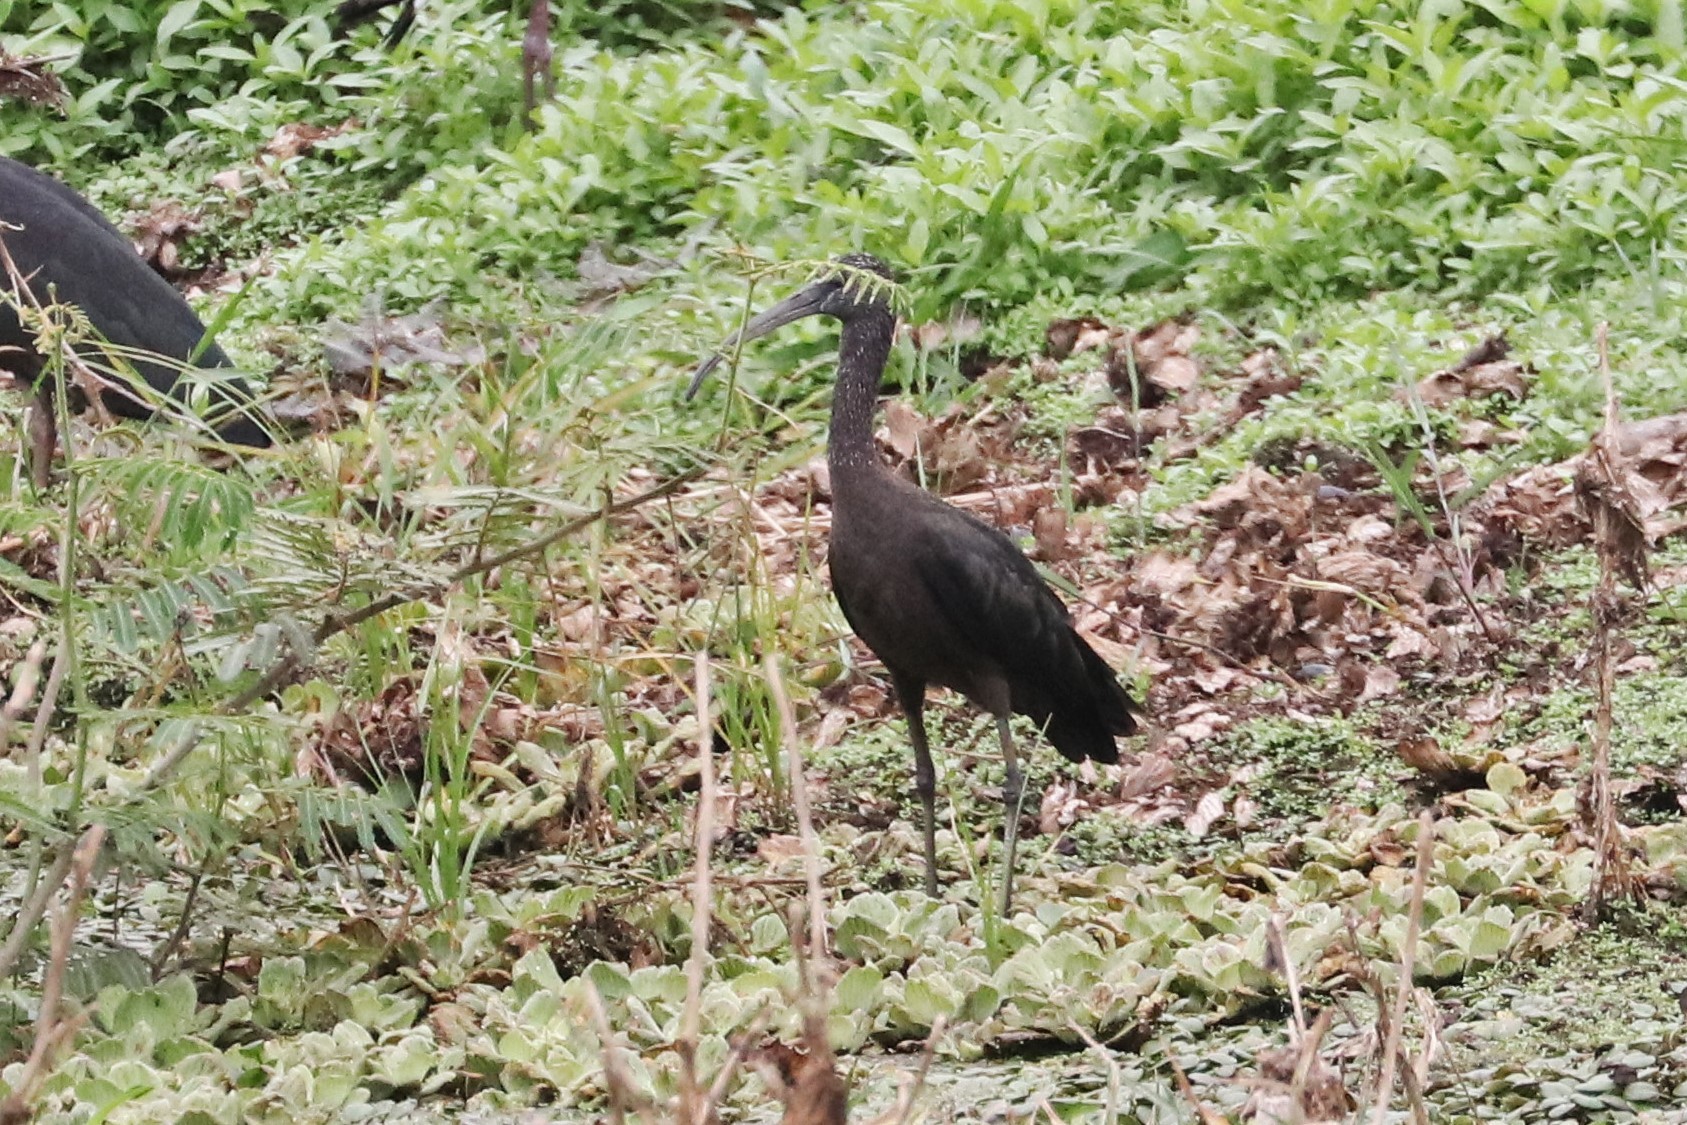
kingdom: Animalia
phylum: Chordata
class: Aves
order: Pelecaniformes
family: Threskiornithidae
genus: Plegadis
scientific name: Plegadis falcinellus
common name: Glossy ibis
